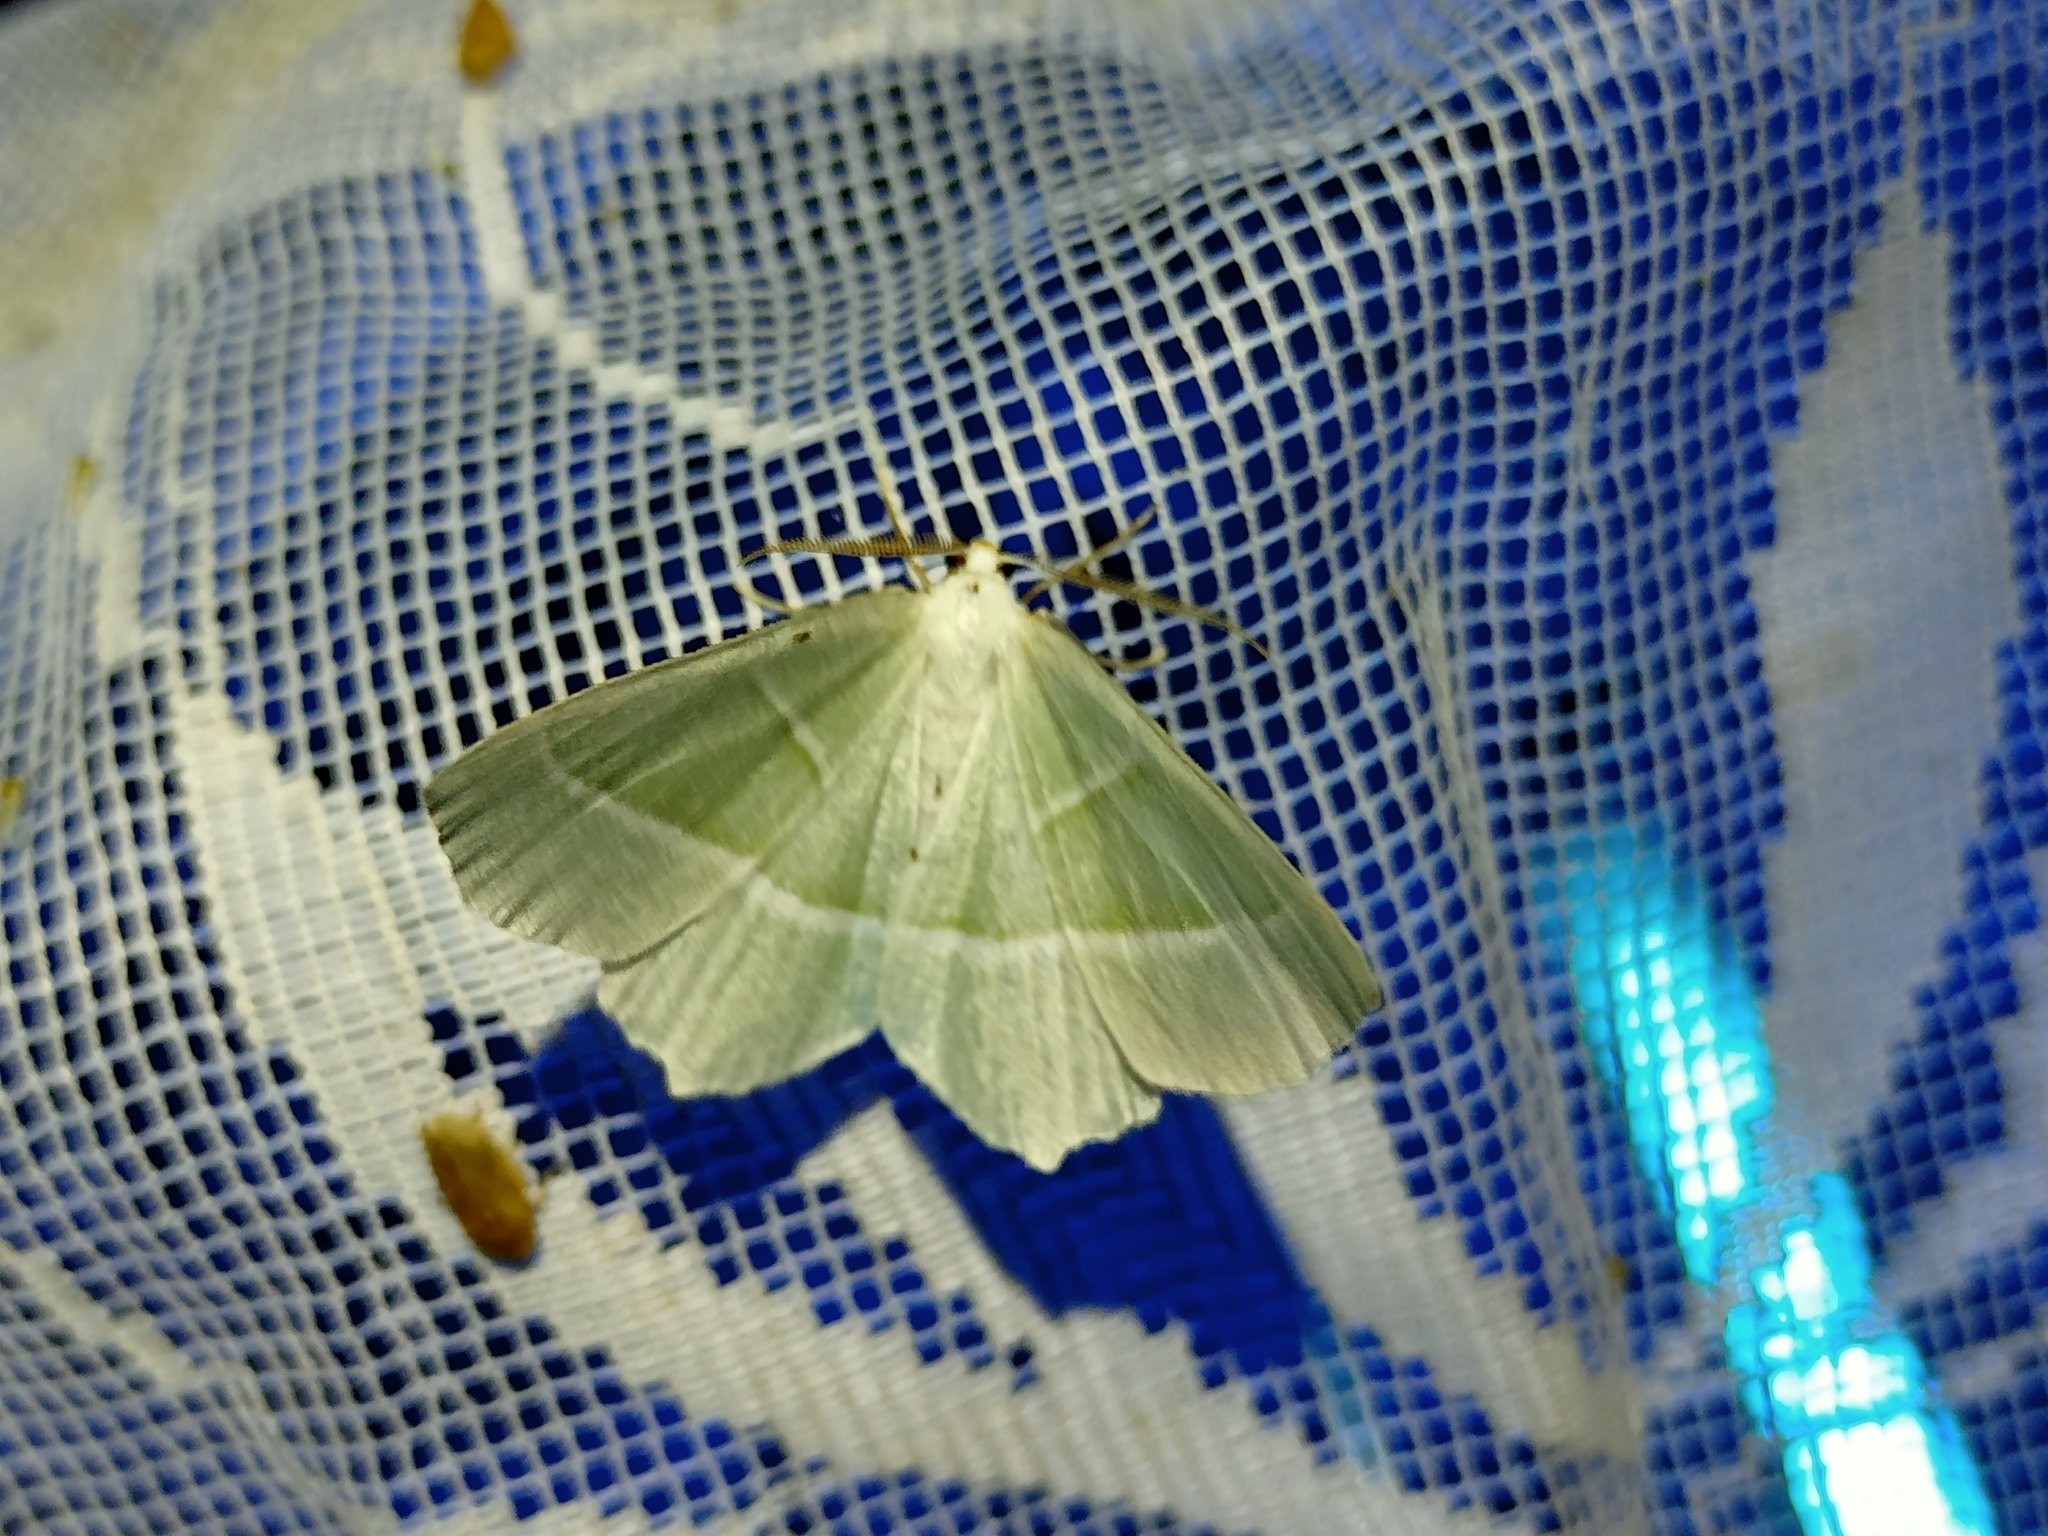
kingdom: Animalia
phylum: Arthropoda
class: Insecta
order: Lepidoptera
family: Geometridae
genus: Campaea
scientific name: Campaea margaritaria
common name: Light emerald
